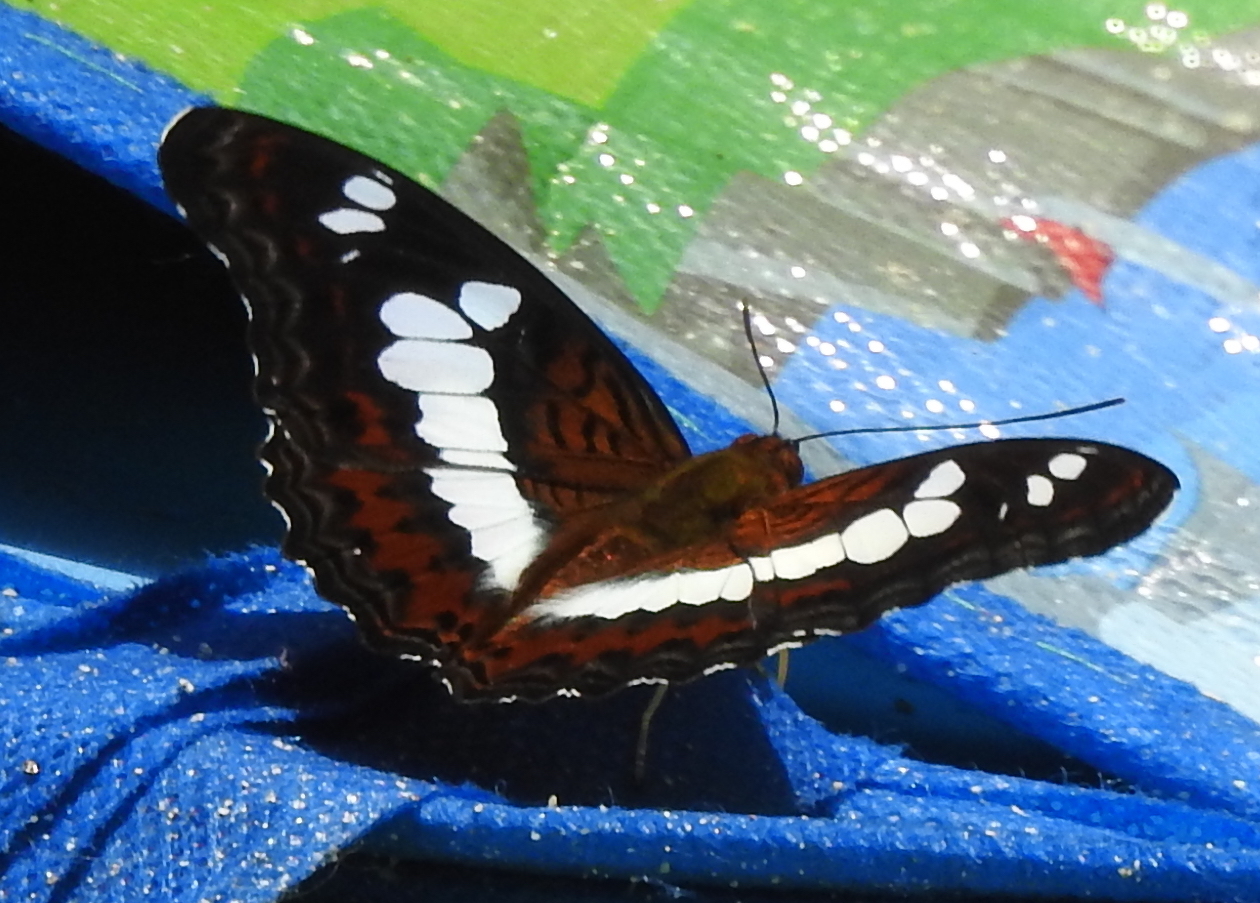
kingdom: Animalia
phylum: Arthropoda
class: Insecta
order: Lepidoptera
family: Nymphalidae
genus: Limenitis
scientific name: Limenitis Moduza procris
